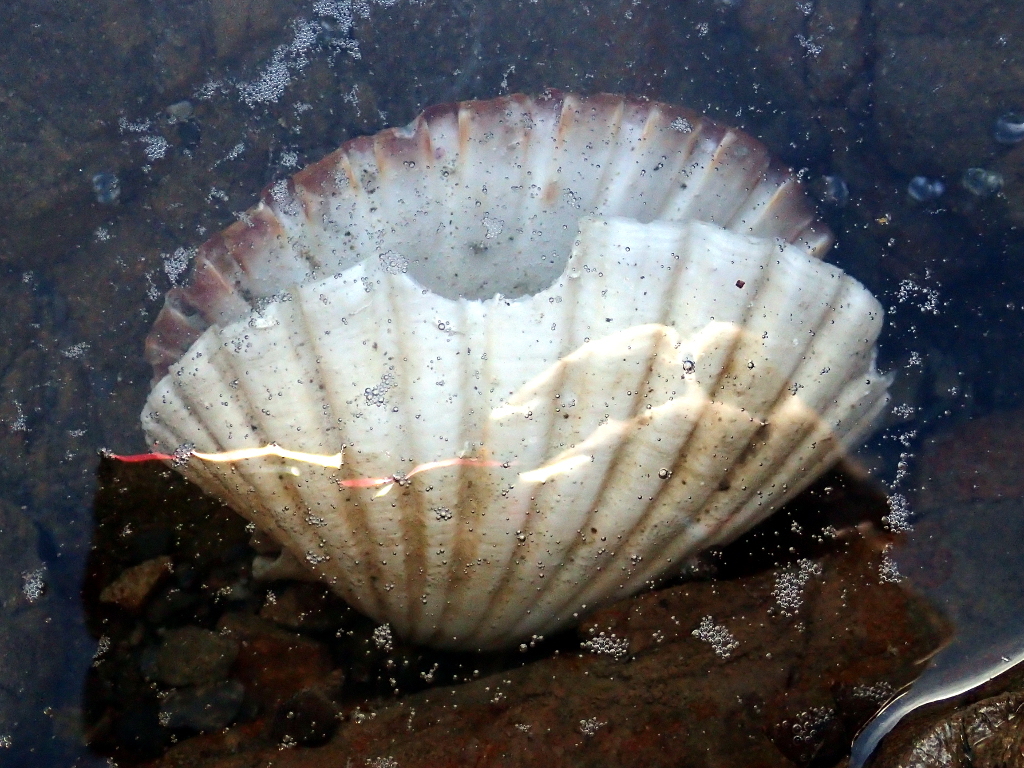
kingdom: Animalia
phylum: Mollusca
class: Bivalvia
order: Pectinida
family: Pectinidae
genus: Pecten
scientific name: Pecten novaezelandiae
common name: New zealand scallop
